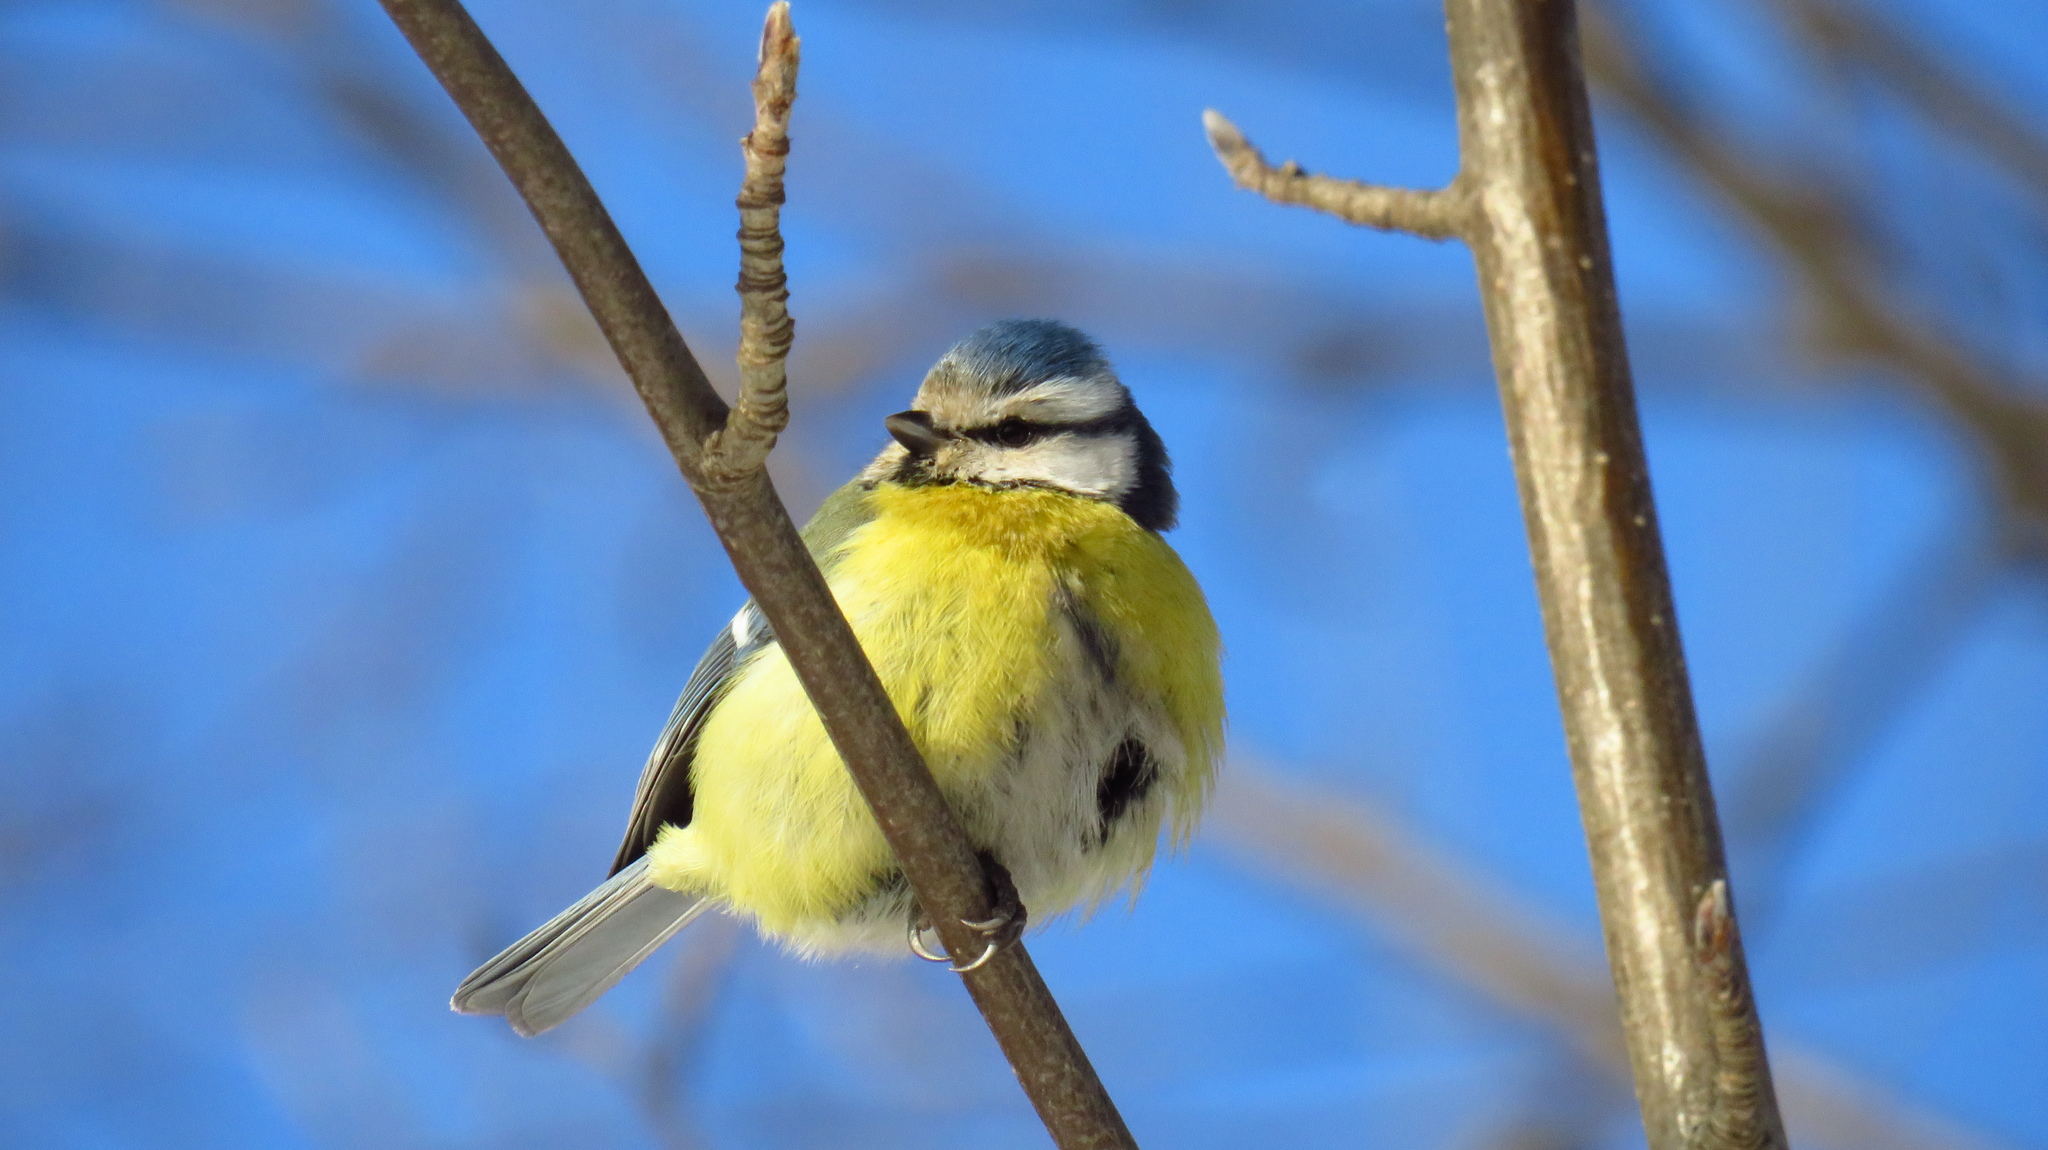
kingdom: Animalia
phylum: Chordata
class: Aves
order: Passeriformes
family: Paridae
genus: Cyanistes
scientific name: Cyanistes caeruleus
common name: Eurasian blue tit
